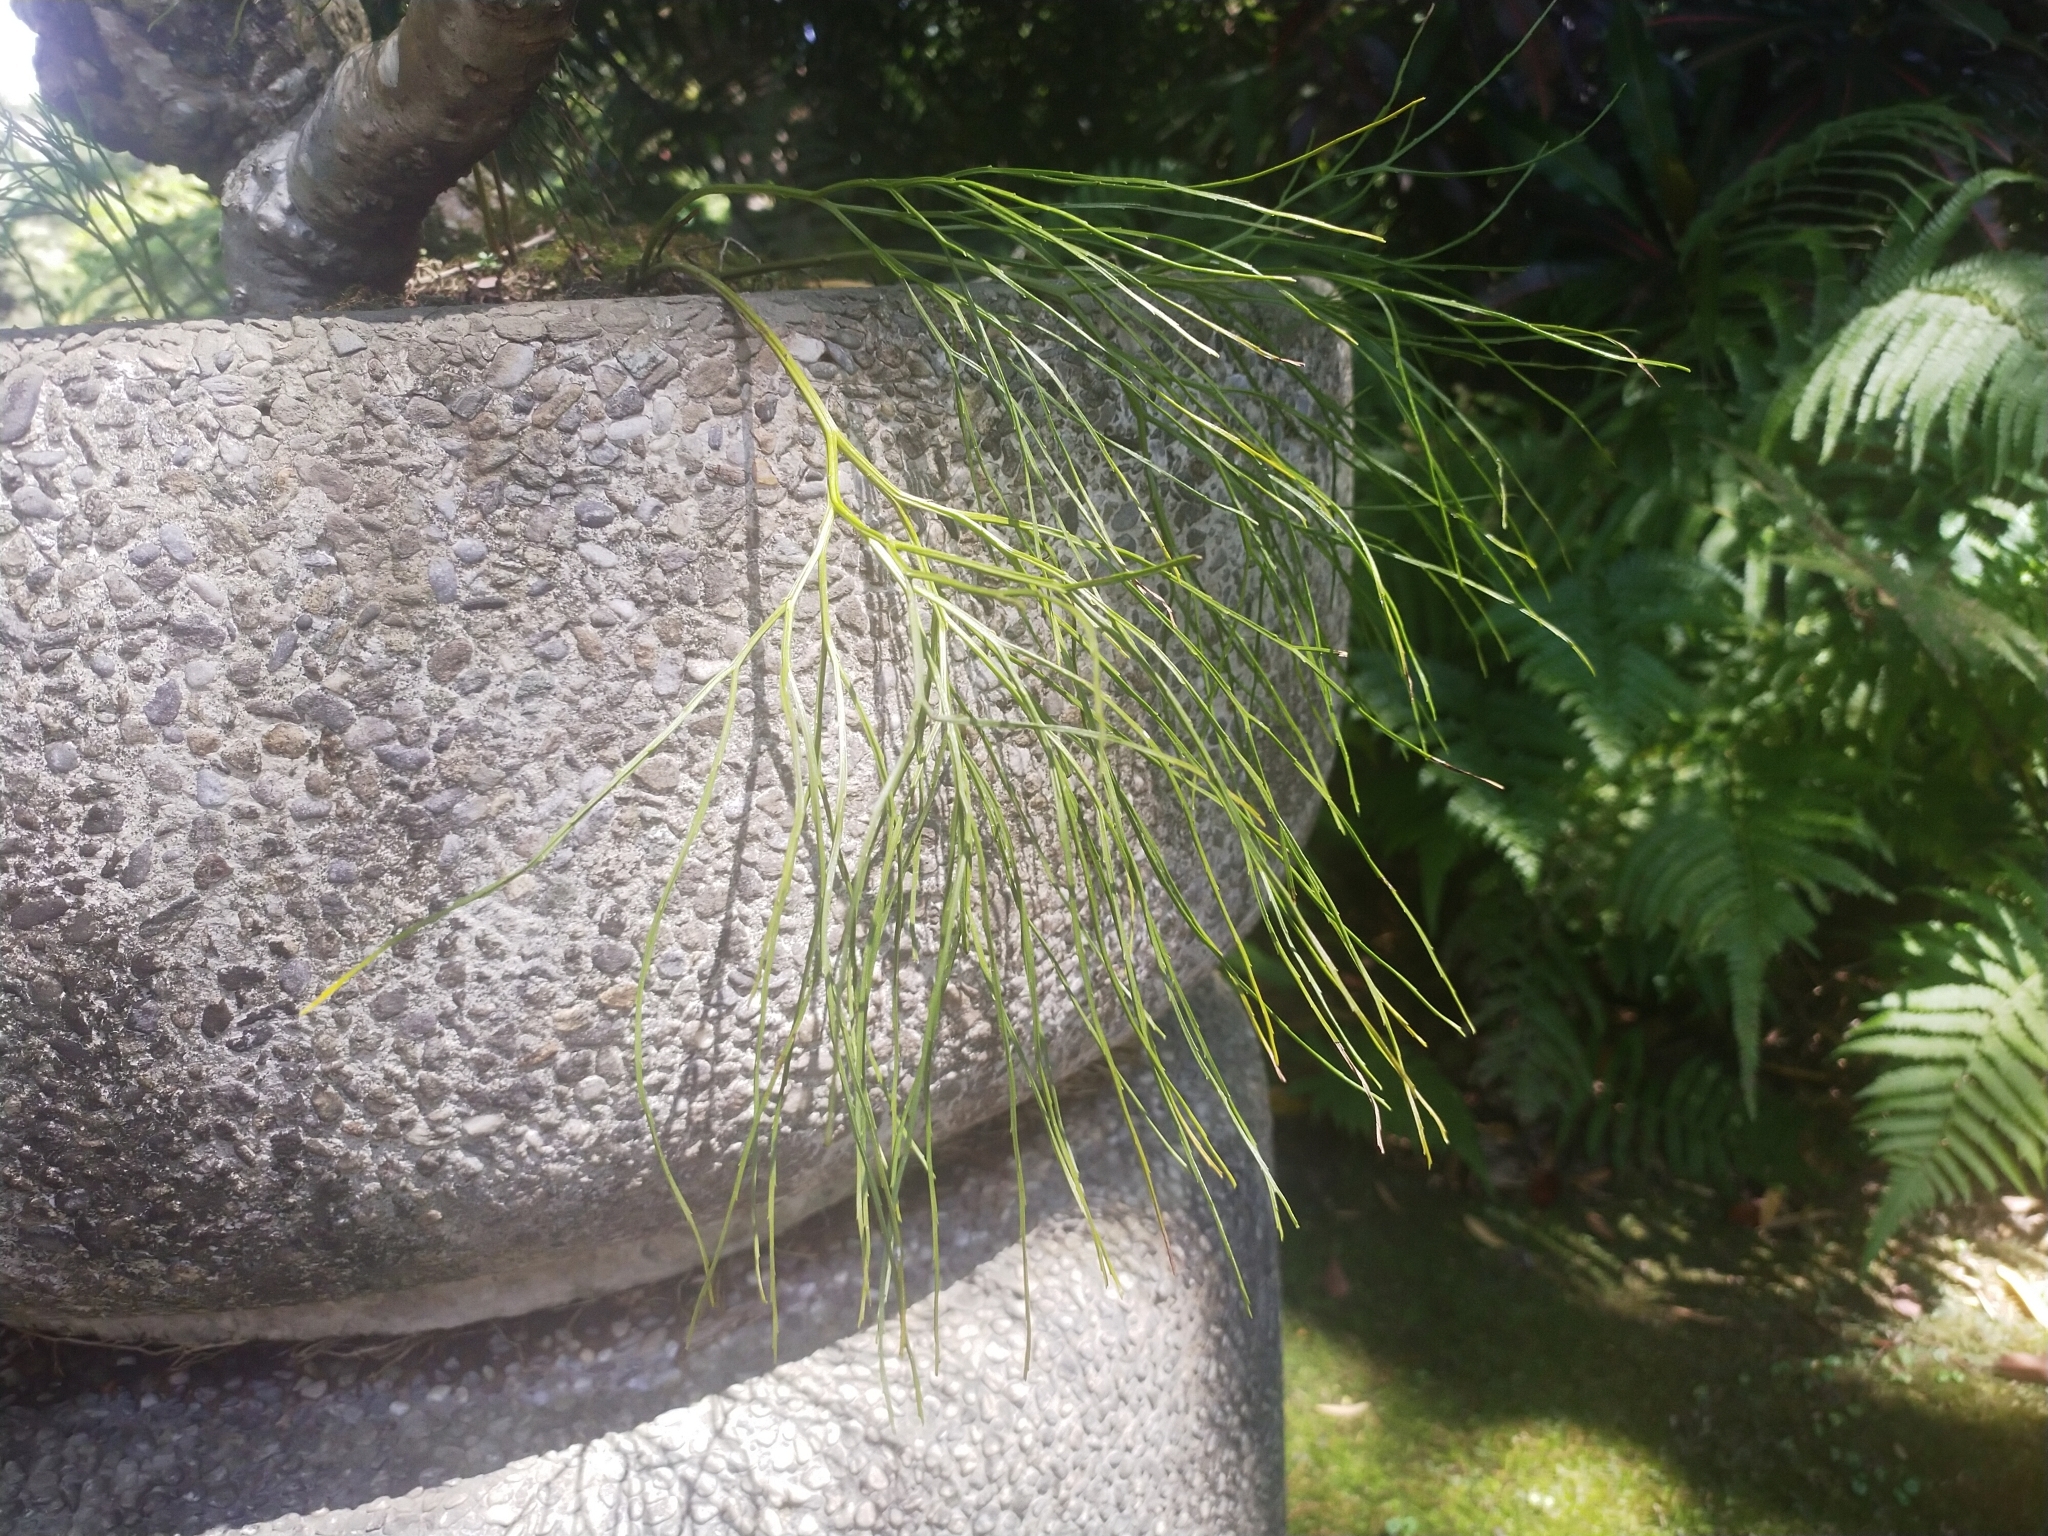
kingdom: Plantae
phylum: Tracheophyta
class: Polypodiopsida
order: Psilotales
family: Psilotaceae
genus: Psilotum
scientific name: Psilotum nudum
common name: Skeleton fork fern
